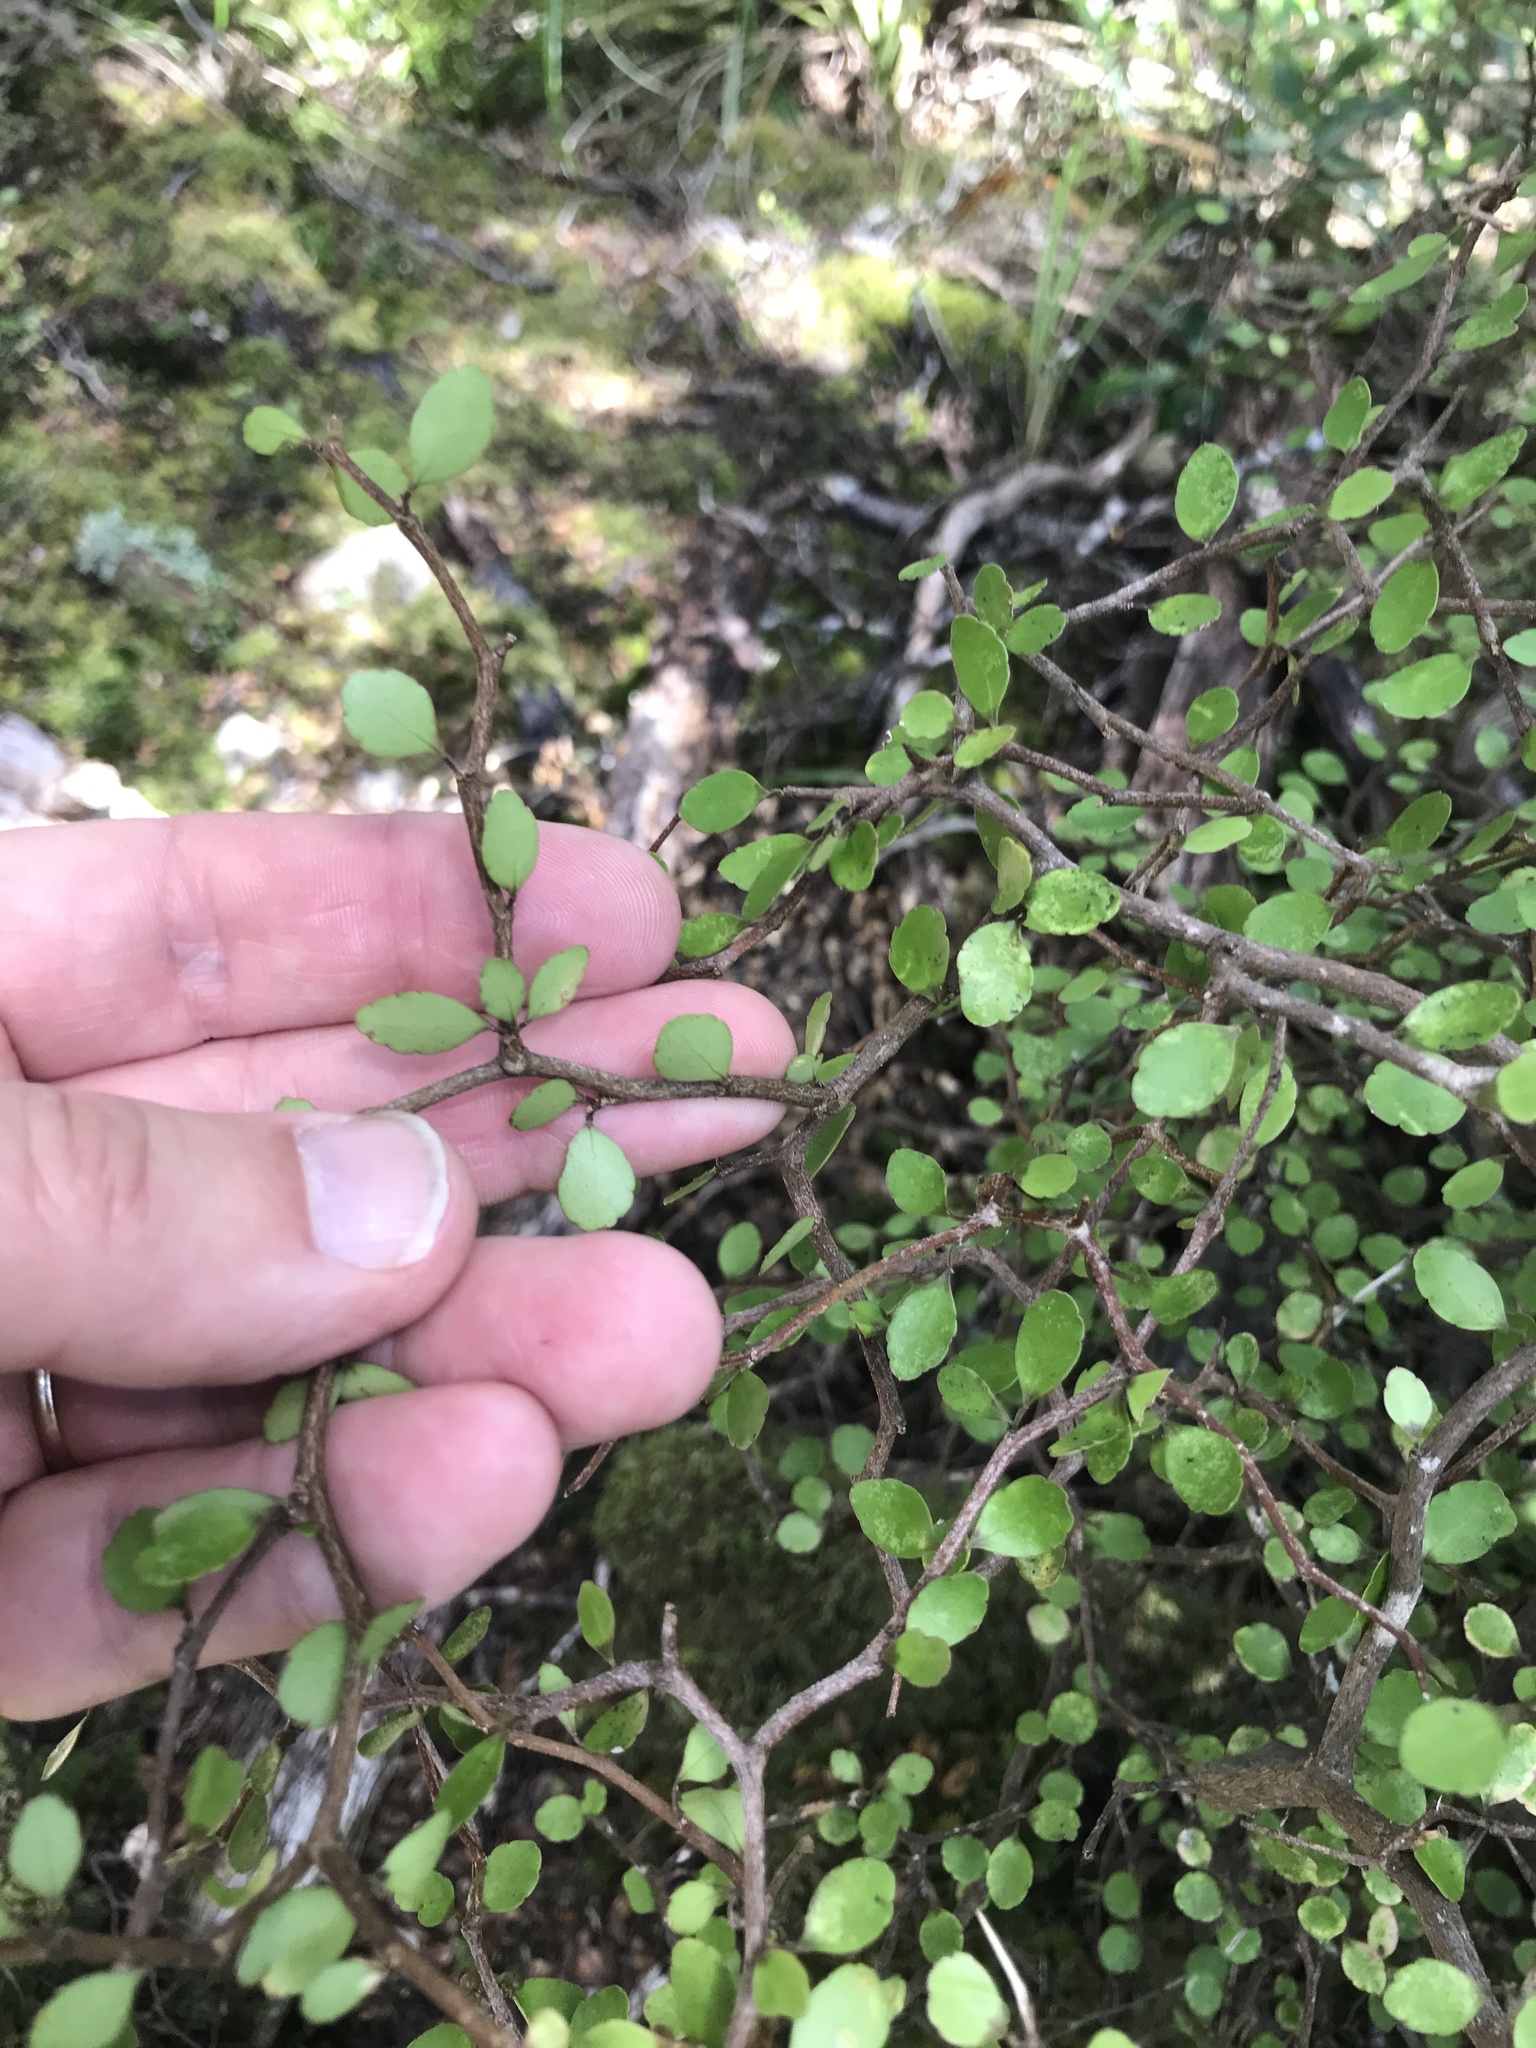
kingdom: Plantae
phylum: Tracheophyta
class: Magnoliopsida
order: Apiales
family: Araliaceae
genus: Raukaua
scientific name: Raukaua anomalus
